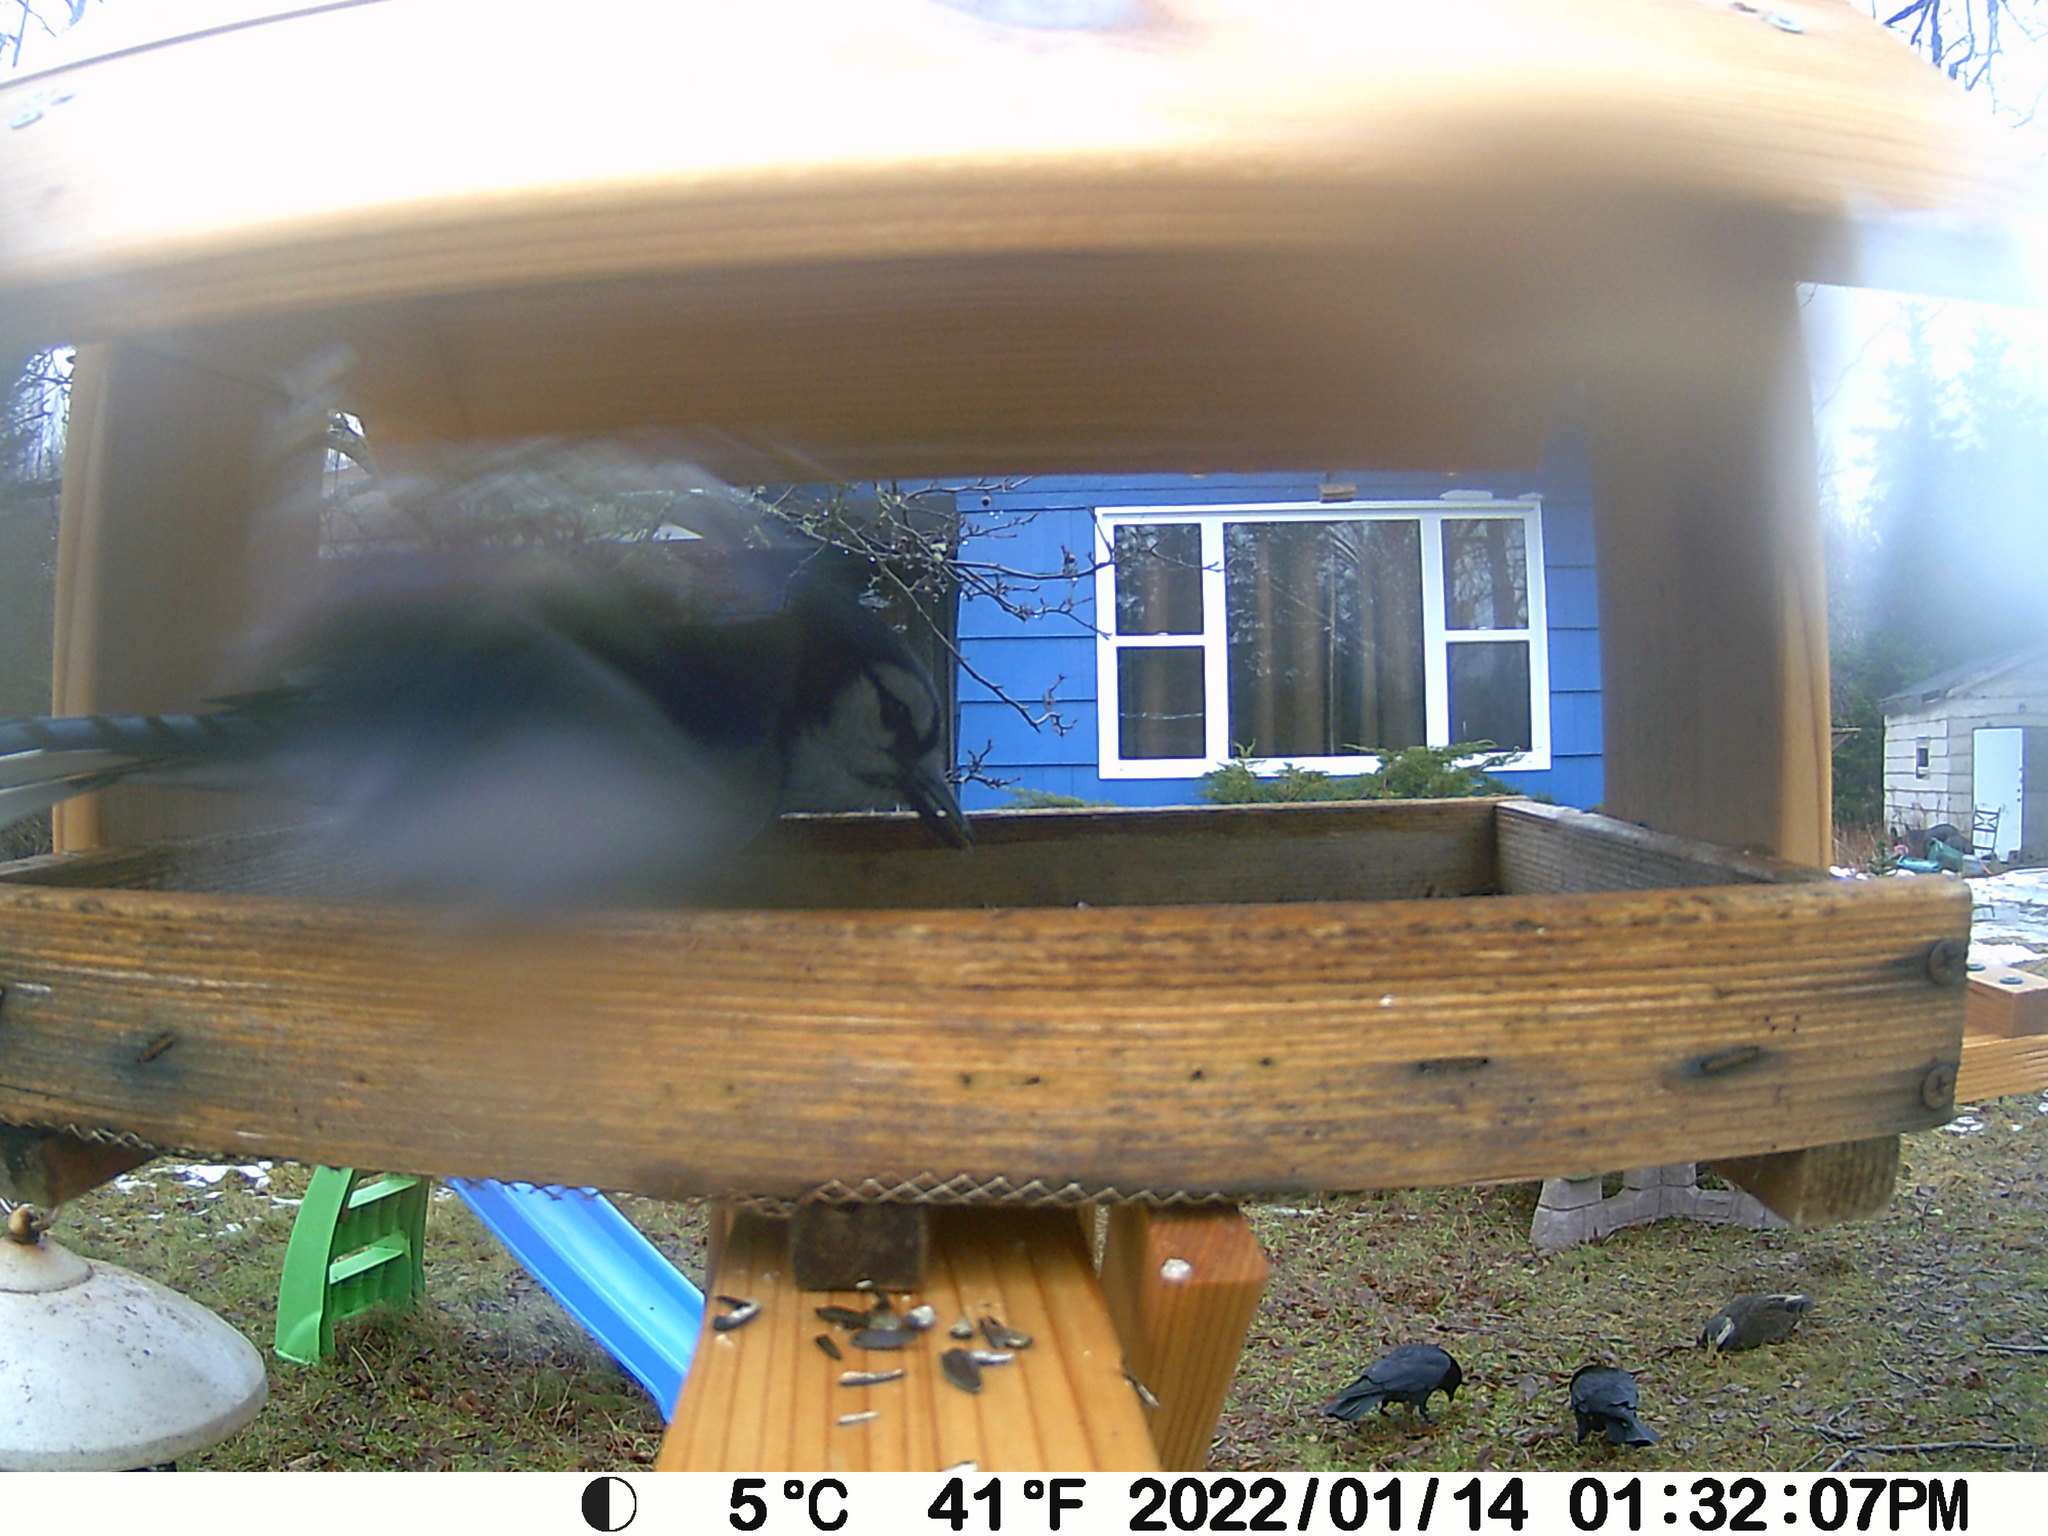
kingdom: Animalia
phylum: Chordata
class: Aves
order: Passeriformes
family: Corvidae
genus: Cyanocitta
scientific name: Cyanocitta cristata
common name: Blue jay
